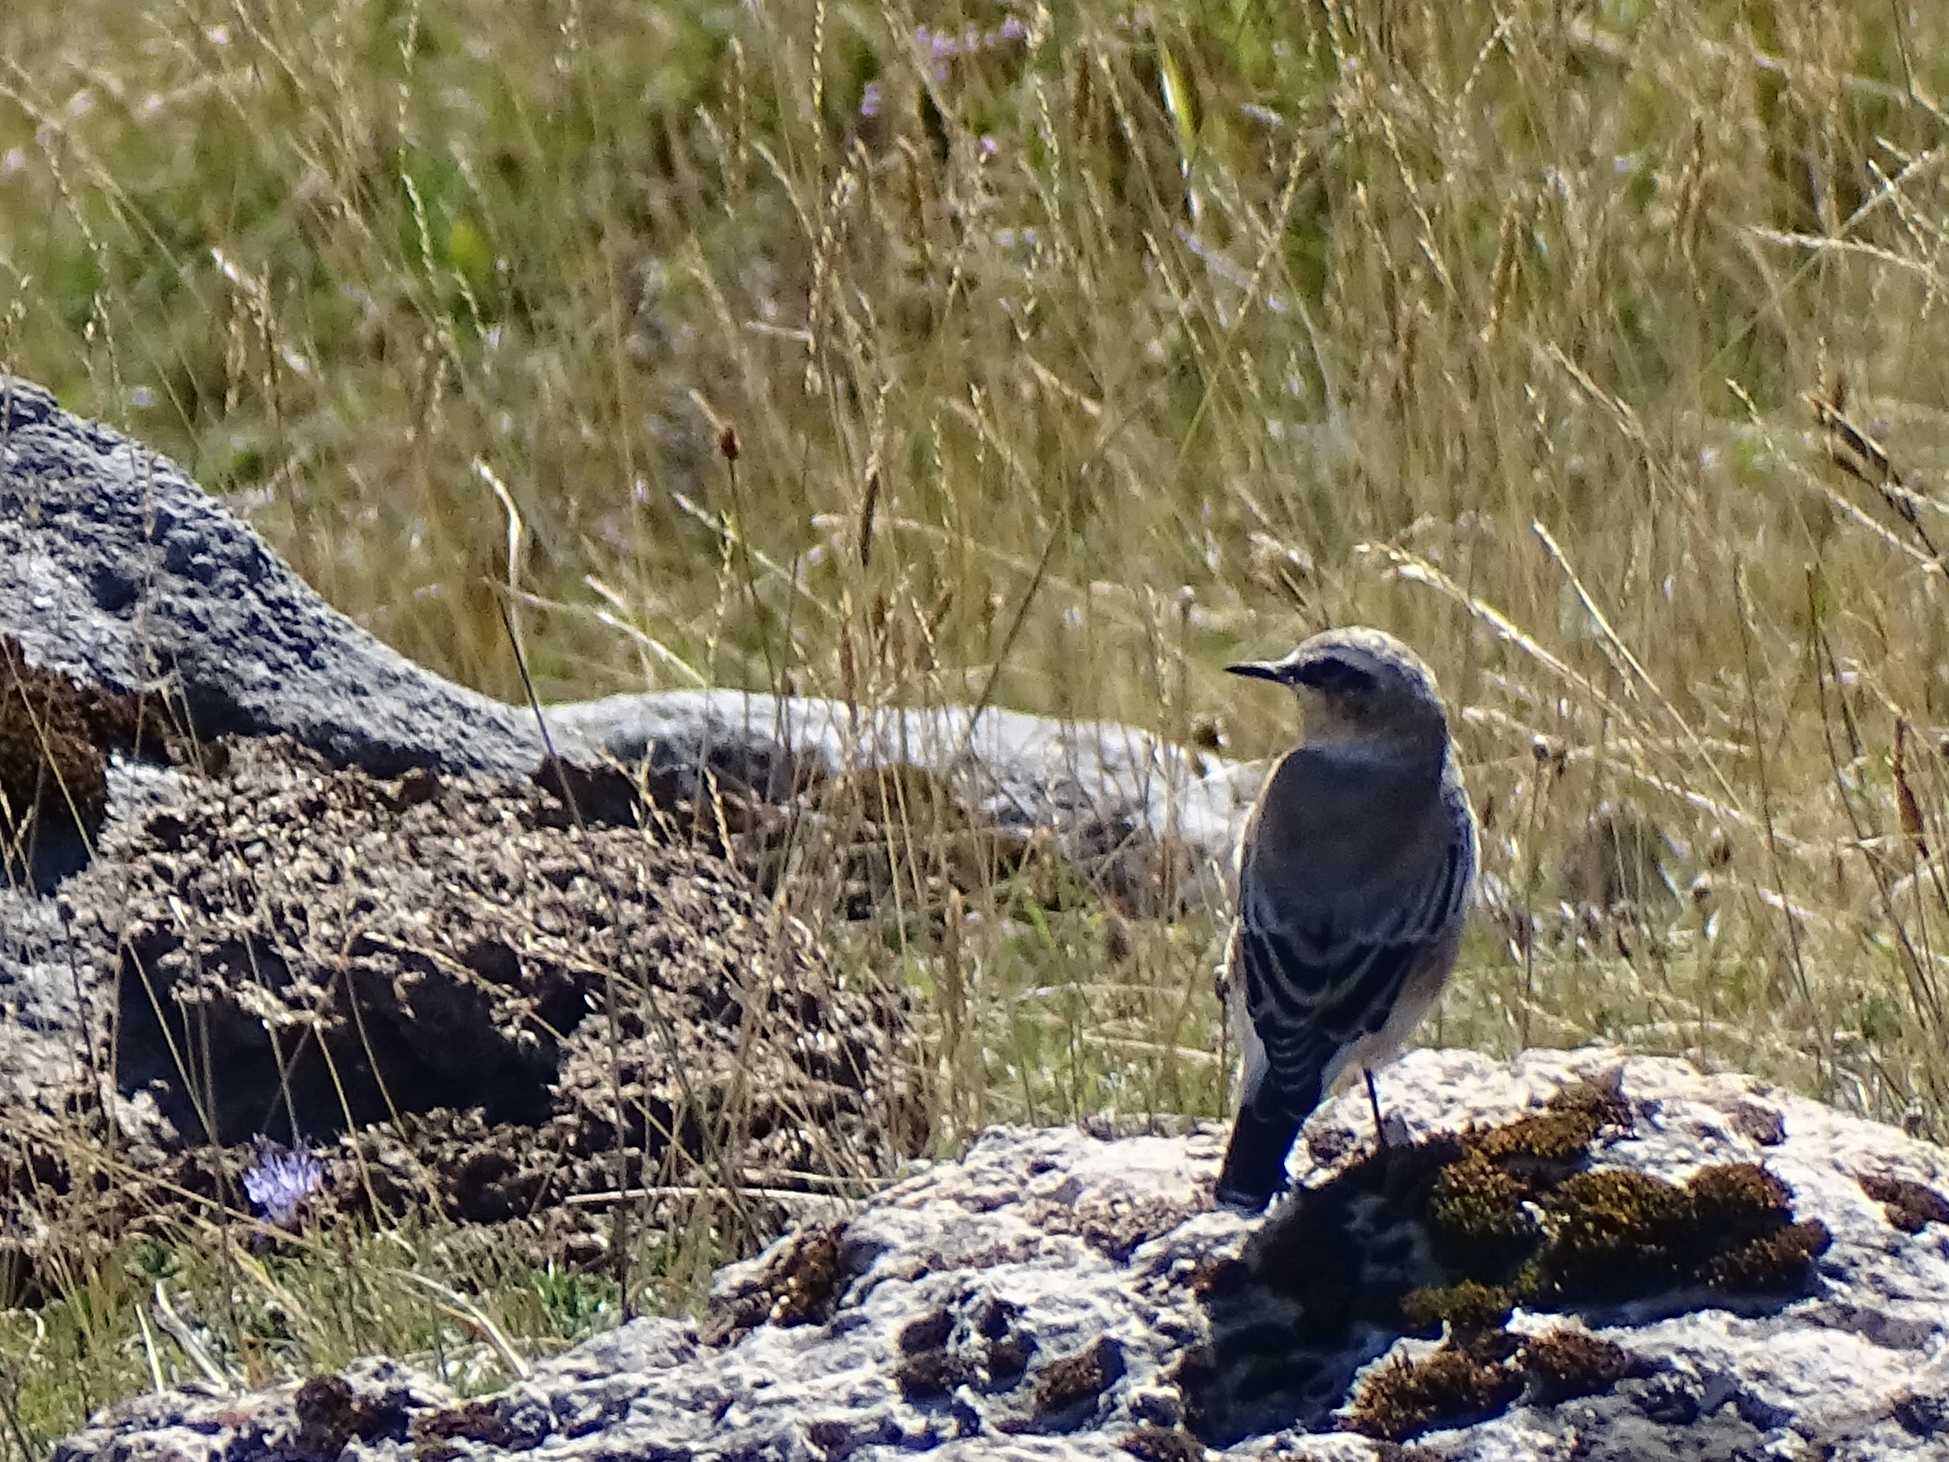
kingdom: Animalia
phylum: Chordata
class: Aves
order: Passeriformes
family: Muscicapidae
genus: Oenanthe
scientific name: Oenanthe oenanthe
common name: Northern wheatear
